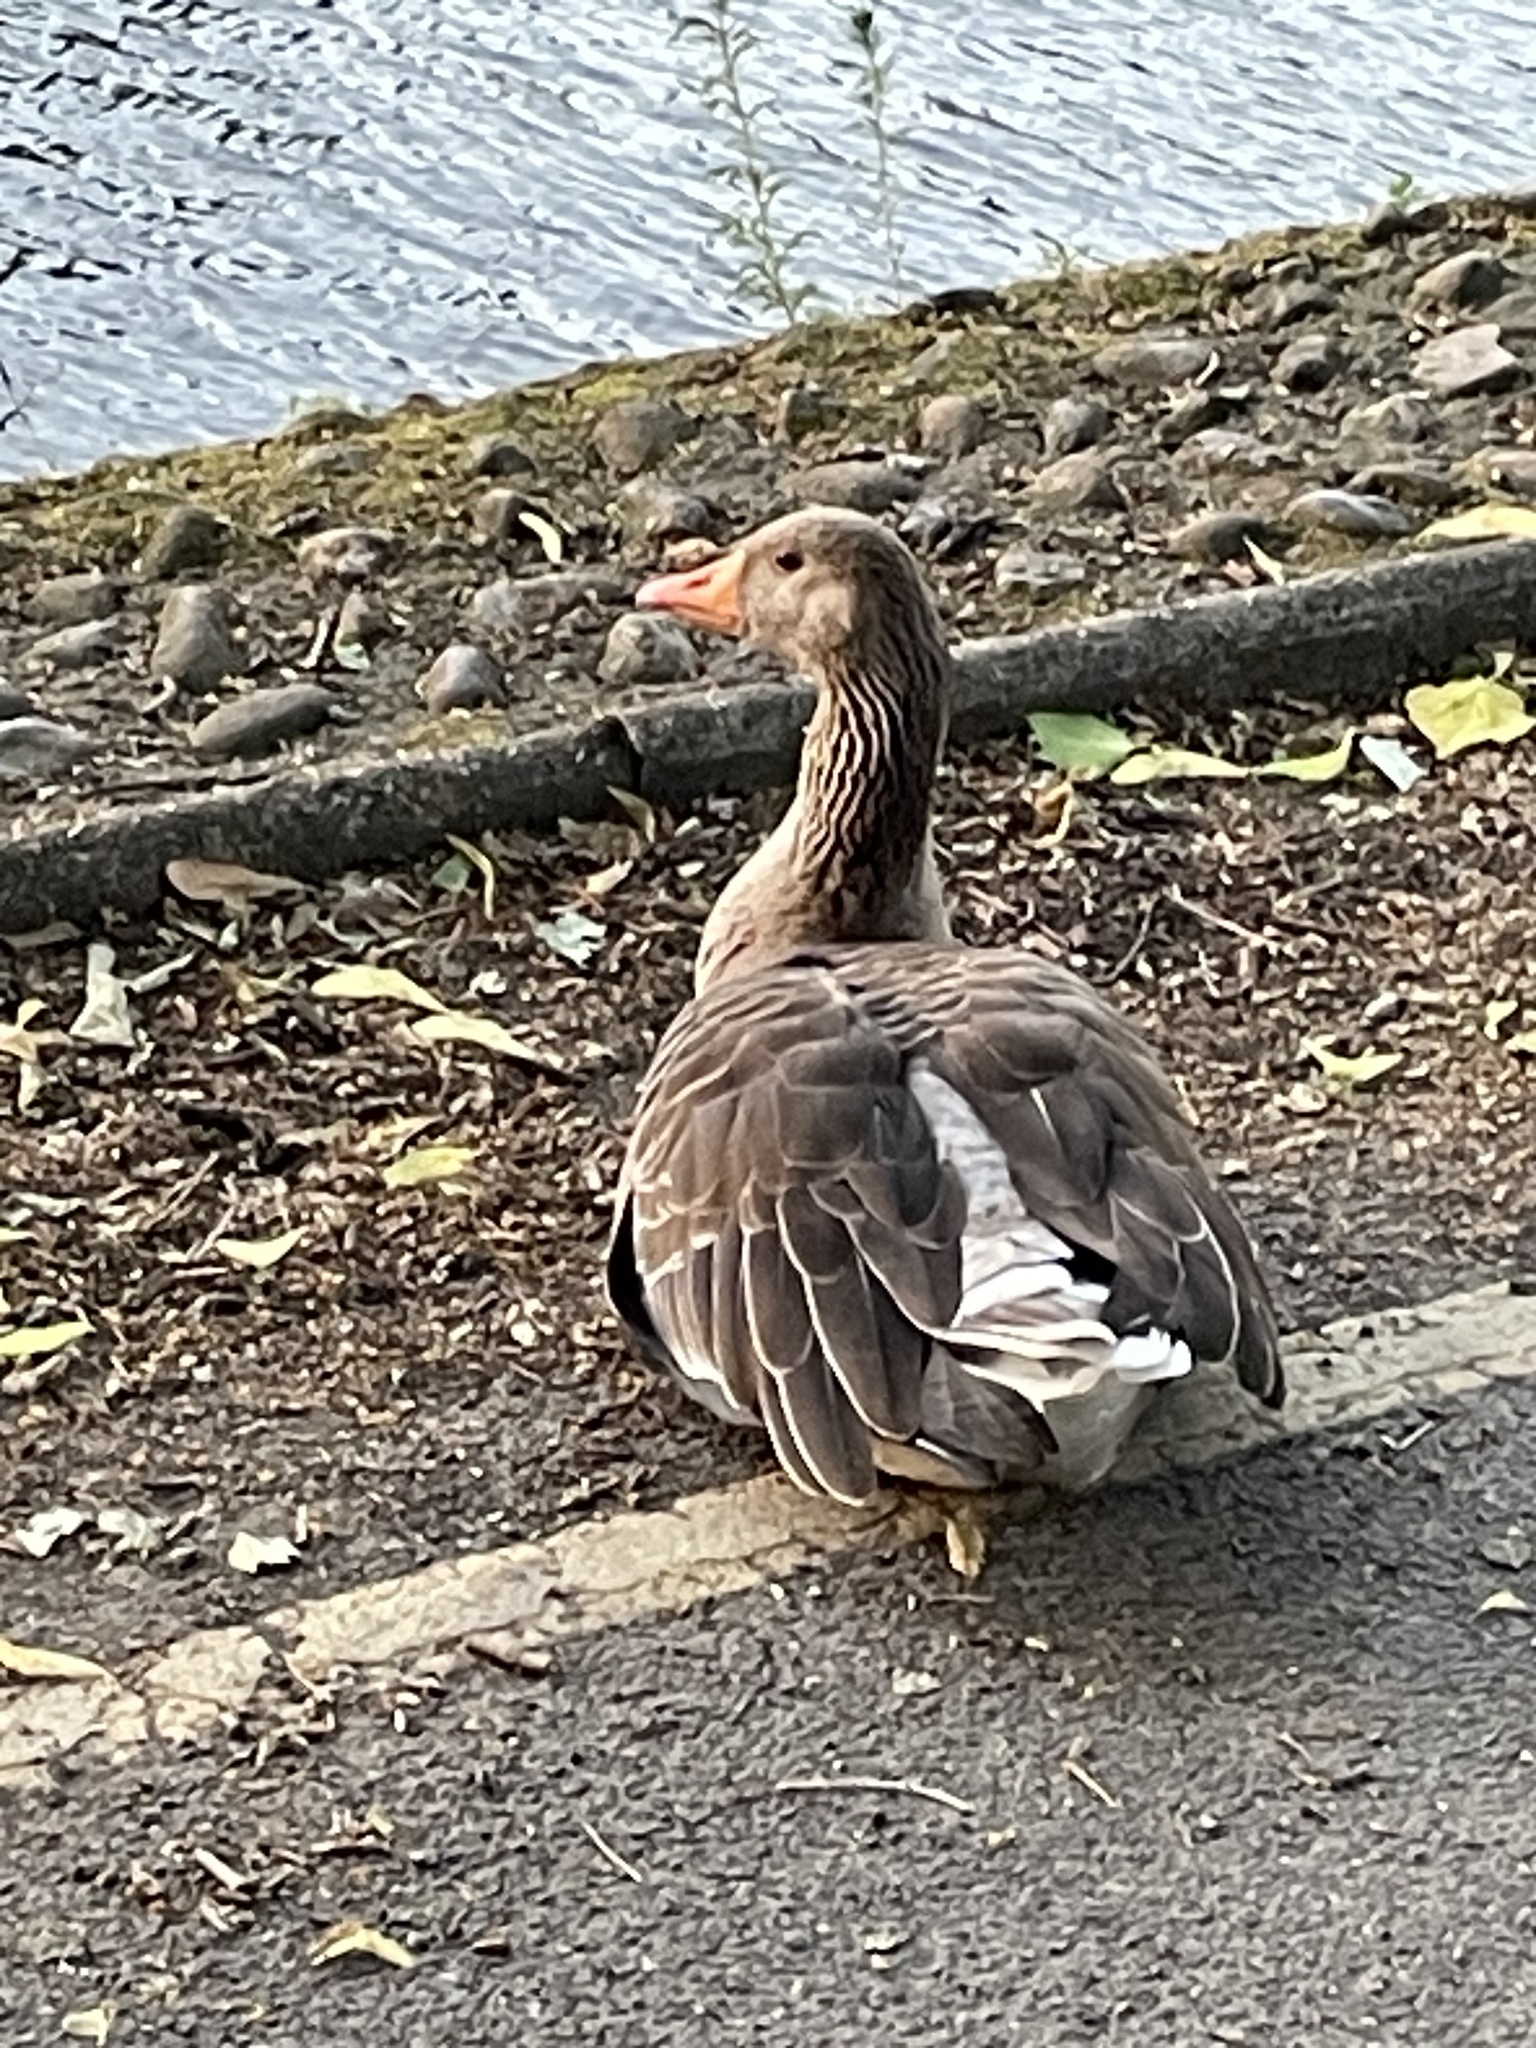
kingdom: Animalia
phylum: Chordata
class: Aves
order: Anseriformes
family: Anatidae
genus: Anser
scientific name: Anser anser
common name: Greylag goose
